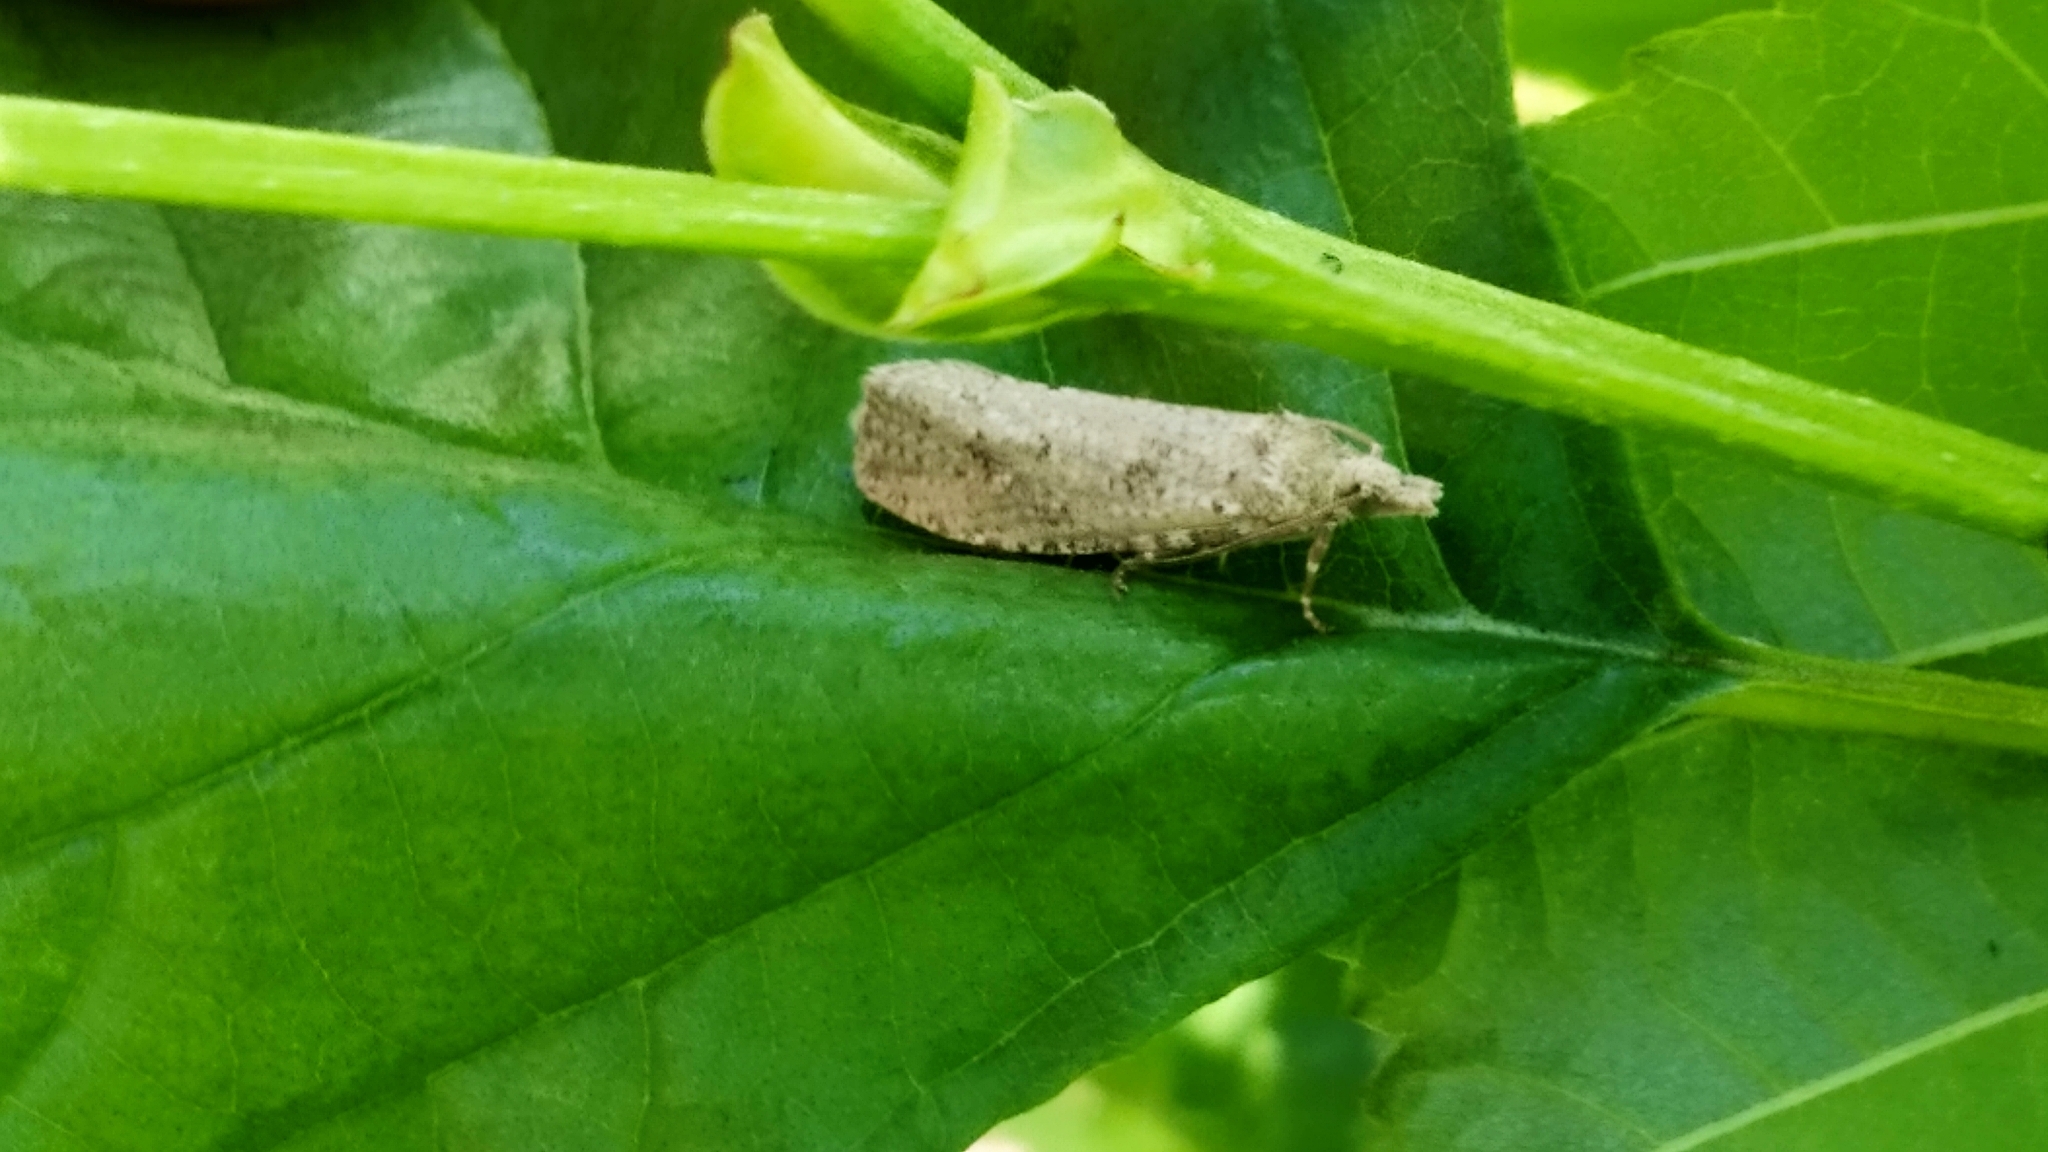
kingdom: Animalia
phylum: Arthropoda
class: Insecta
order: Lepidoptera
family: Tortricidae
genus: Epiblema
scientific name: Epiblema grandaevana
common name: Great bell
